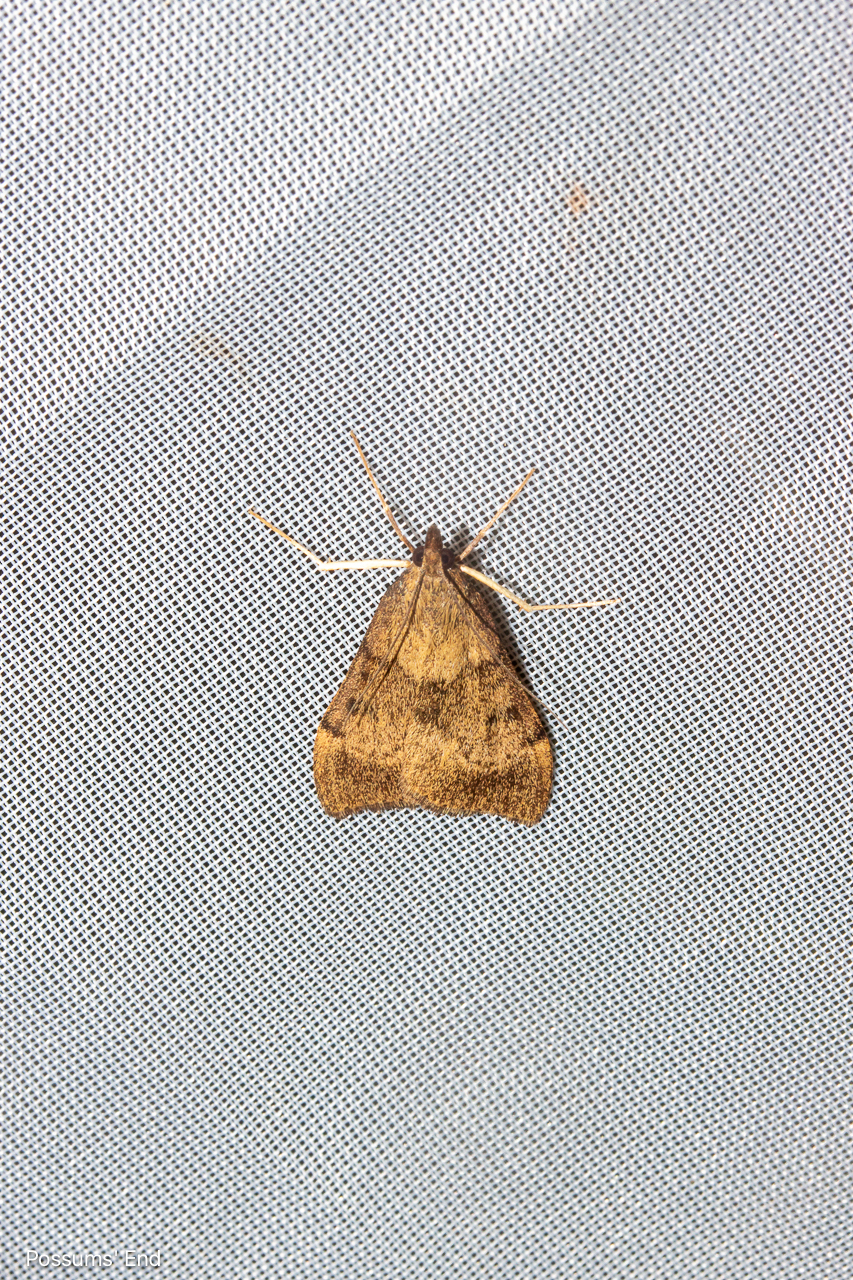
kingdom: Animalia
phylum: Arthropoda
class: Insecta
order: Lepidoptera
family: Crambidae
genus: Uresiphita
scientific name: Uresiphita
